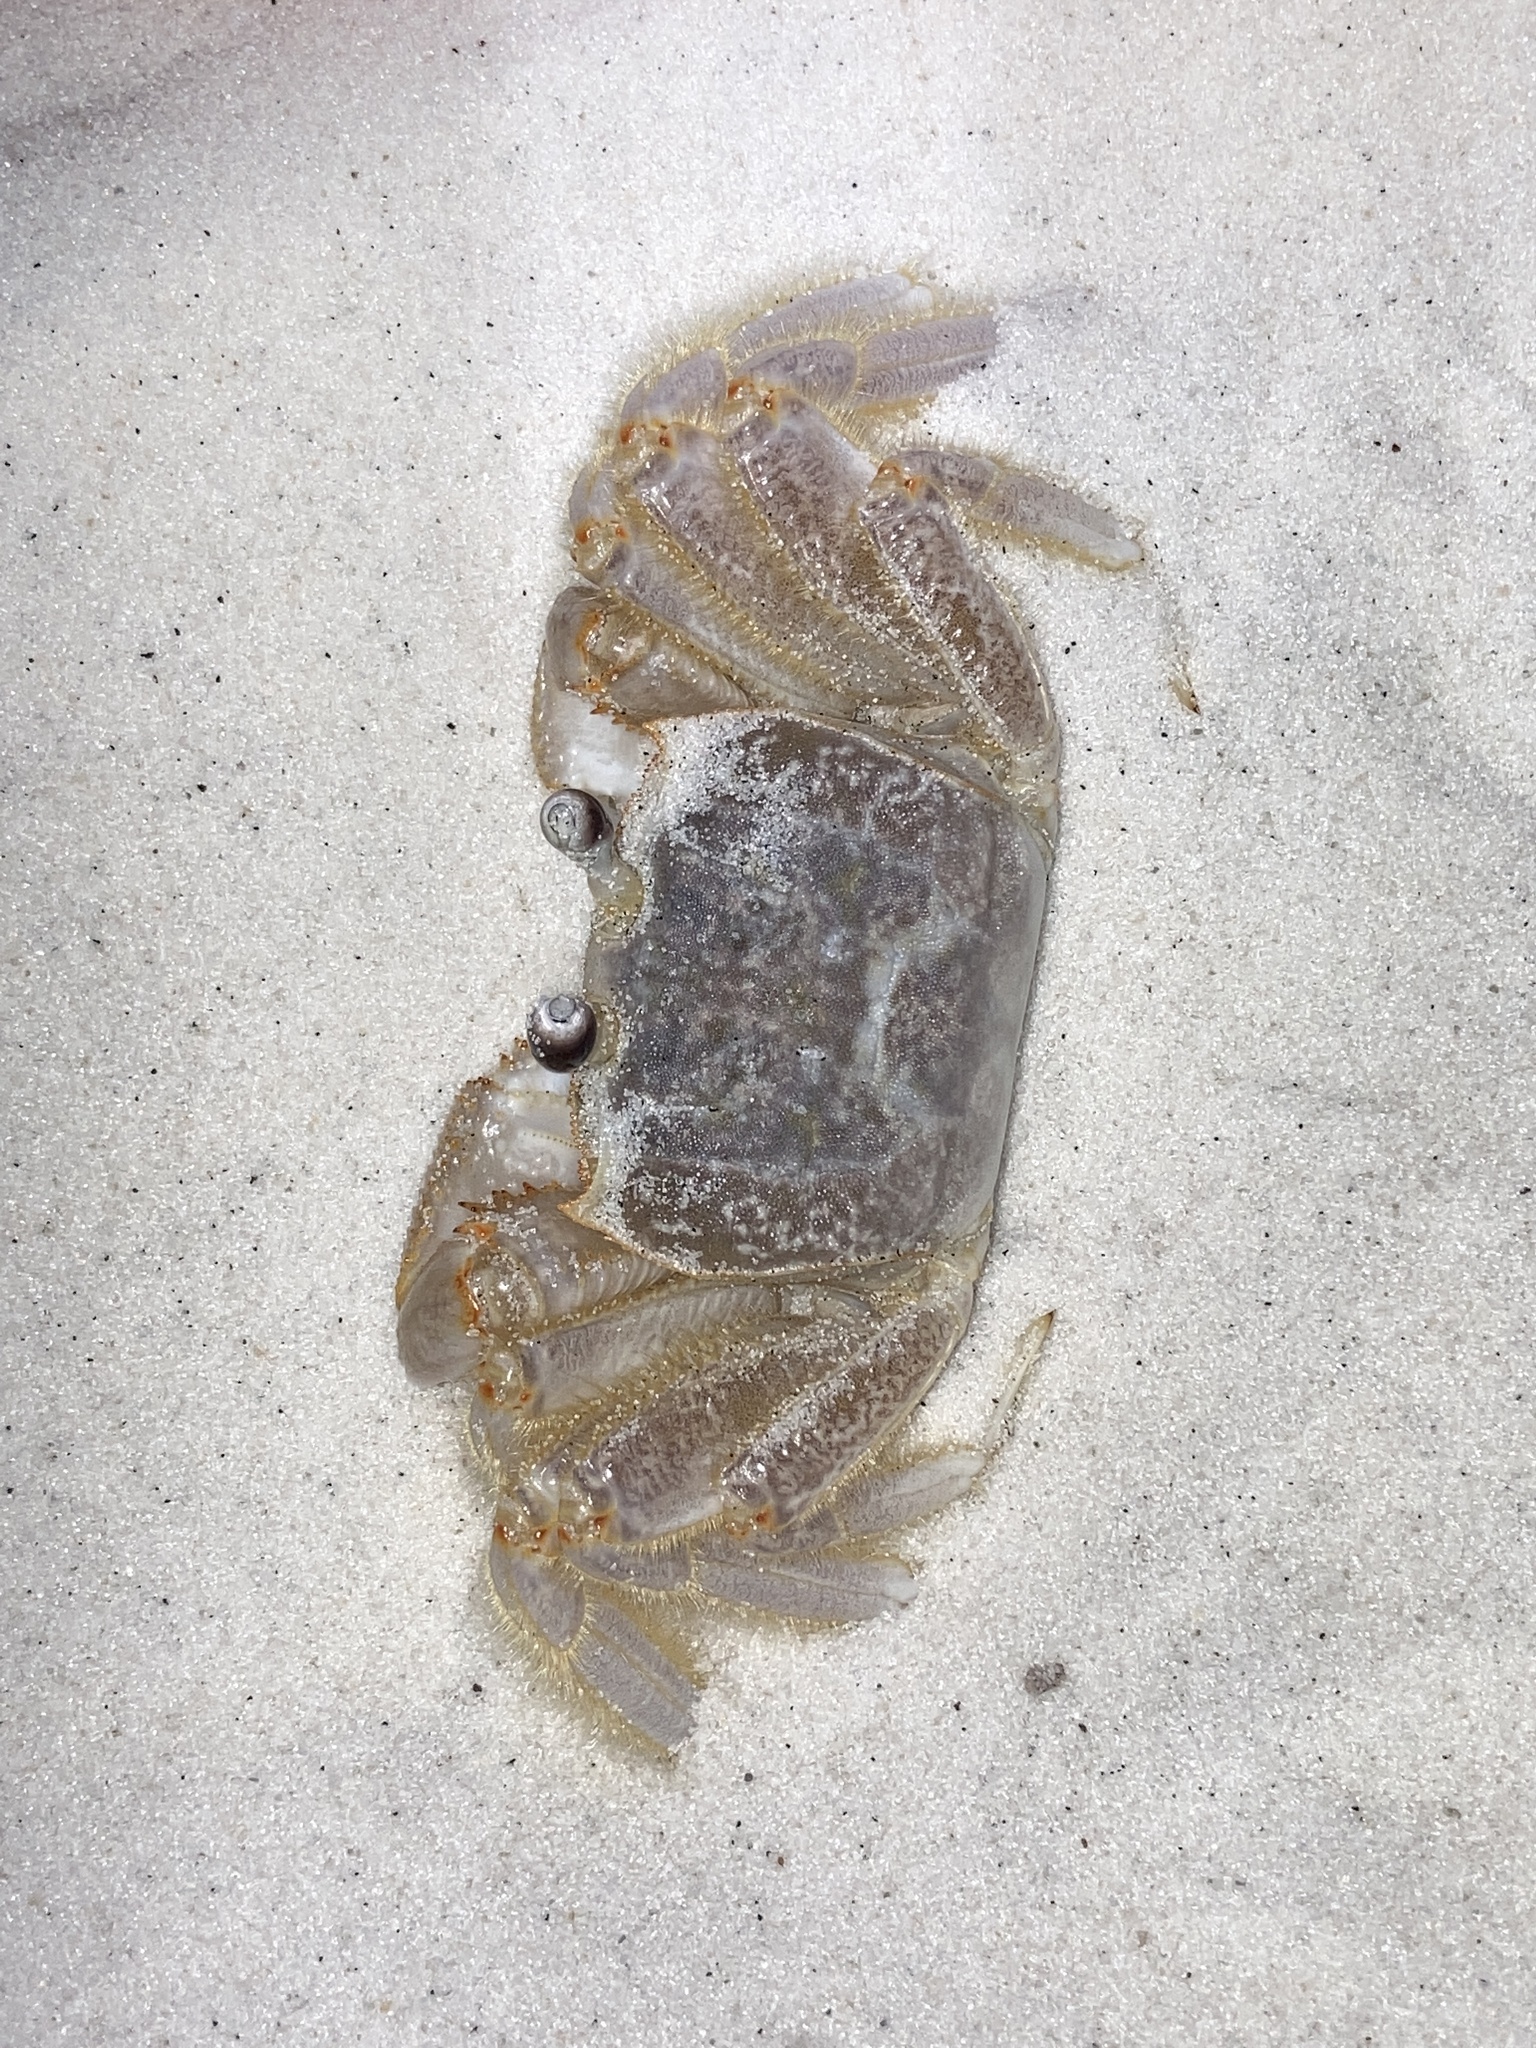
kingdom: Animalia
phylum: Arthropoda
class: Malacostraca
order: Decapoda
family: Ocypodidae
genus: Ocypode
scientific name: Ocypode quadrata
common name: Ghost crab
